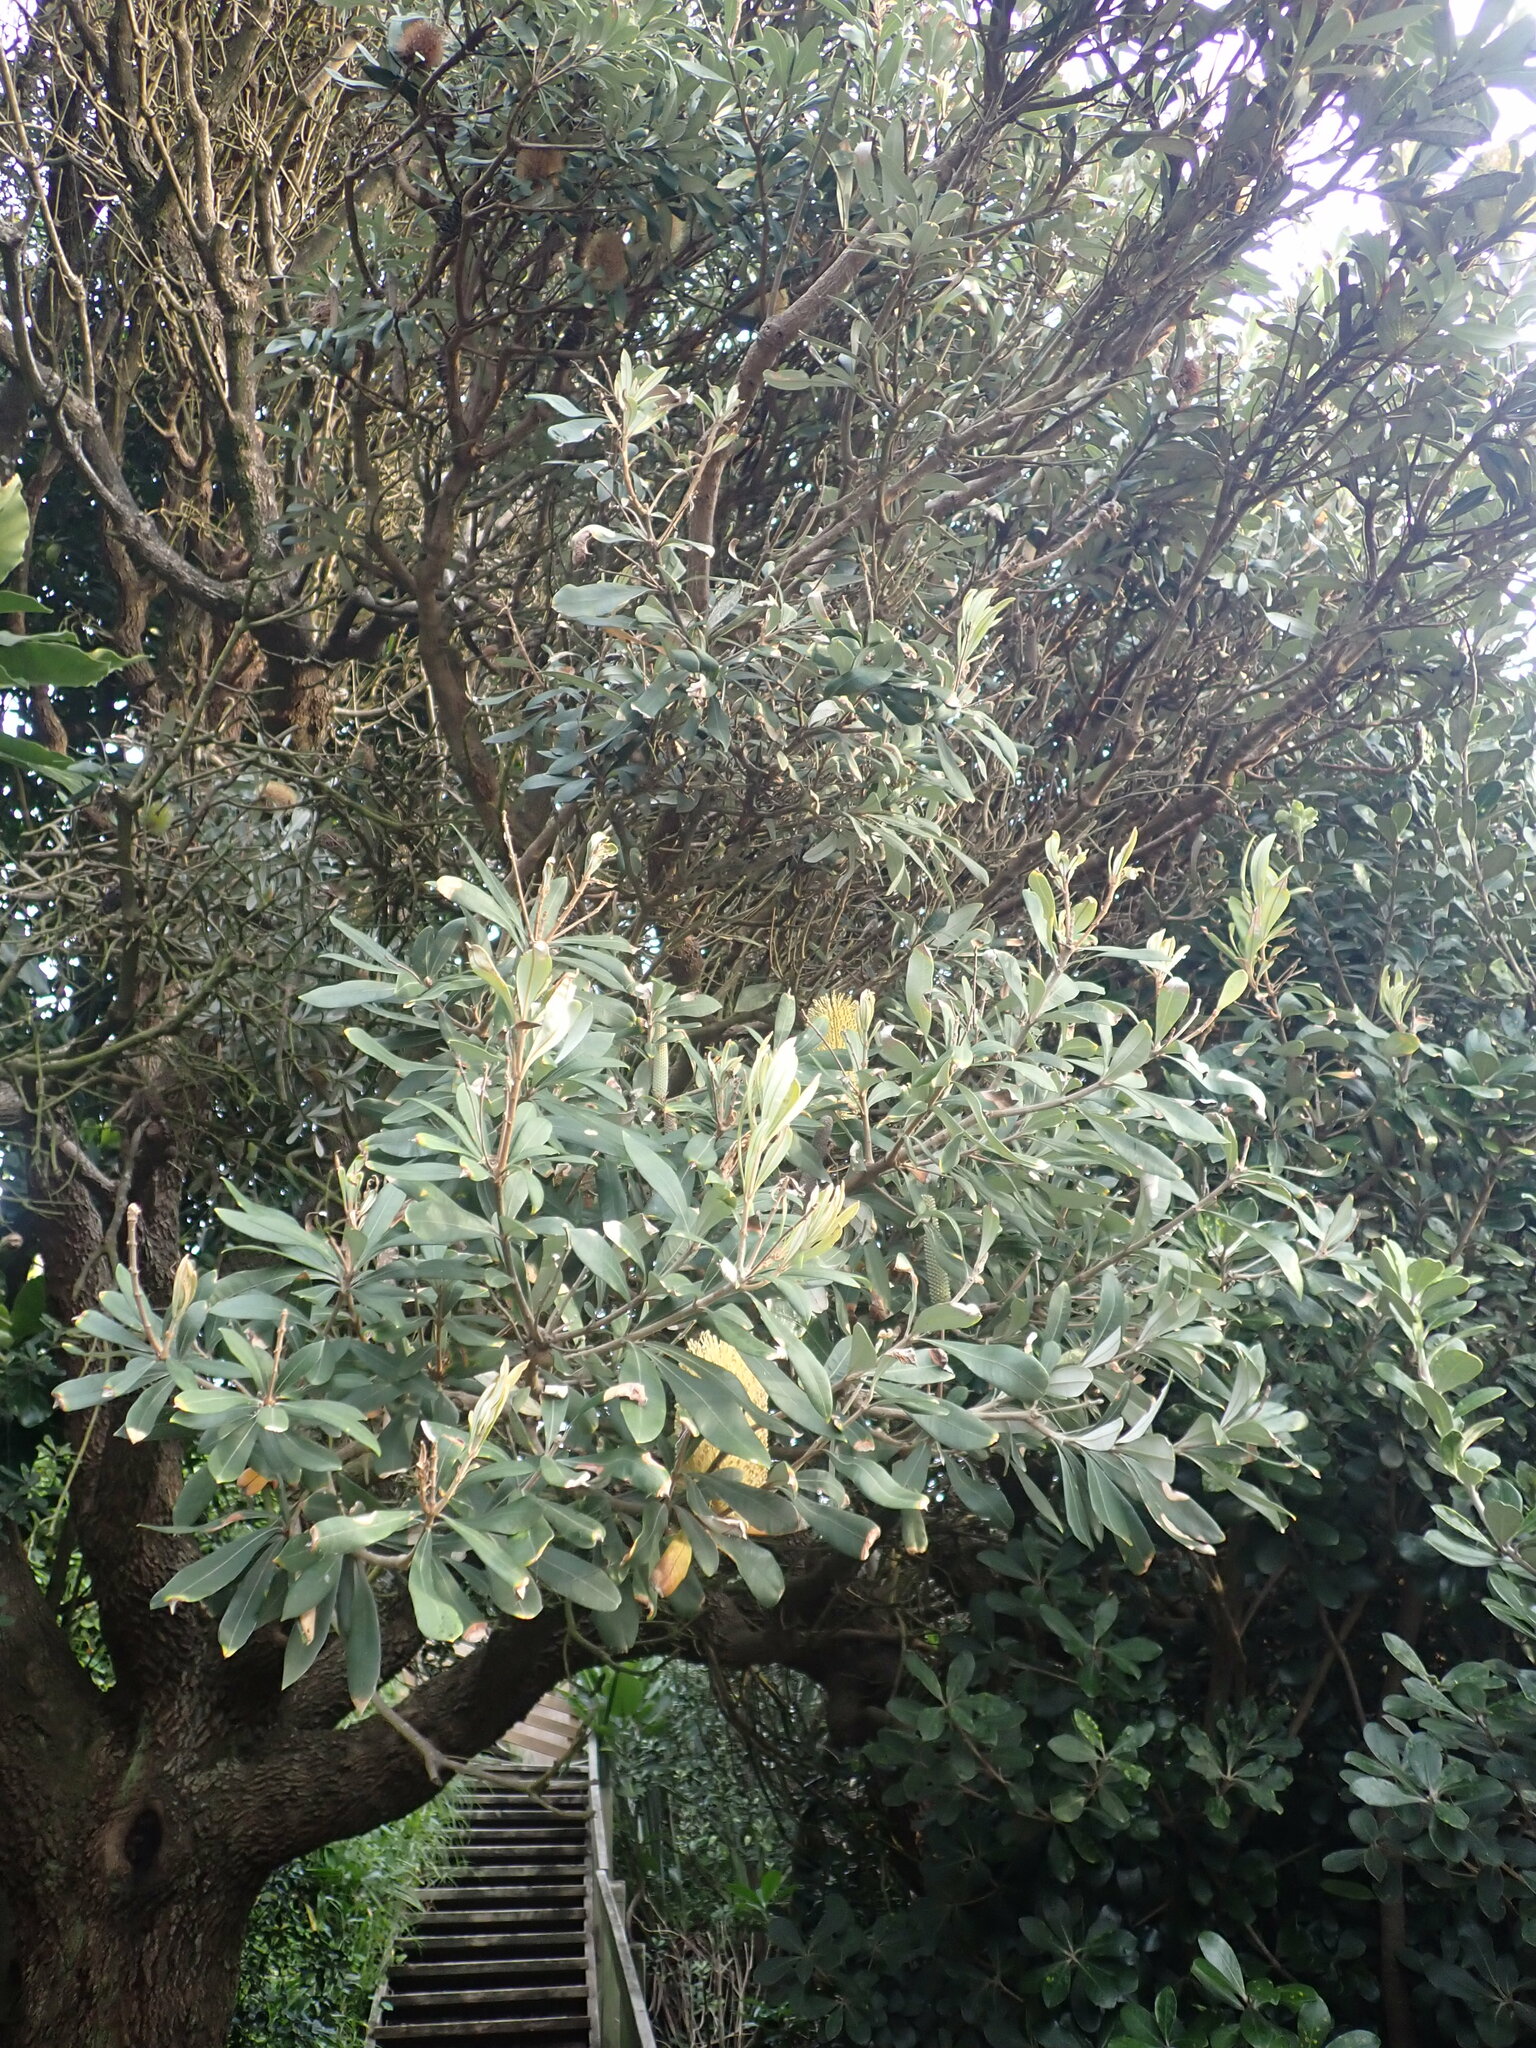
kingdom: Plantae
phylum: Tracheophyta
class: Magnoliopsida
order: Proteales
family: Proteaceae
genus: Banksia
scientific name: Banksia integrifolia
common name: White-honeysuckle
